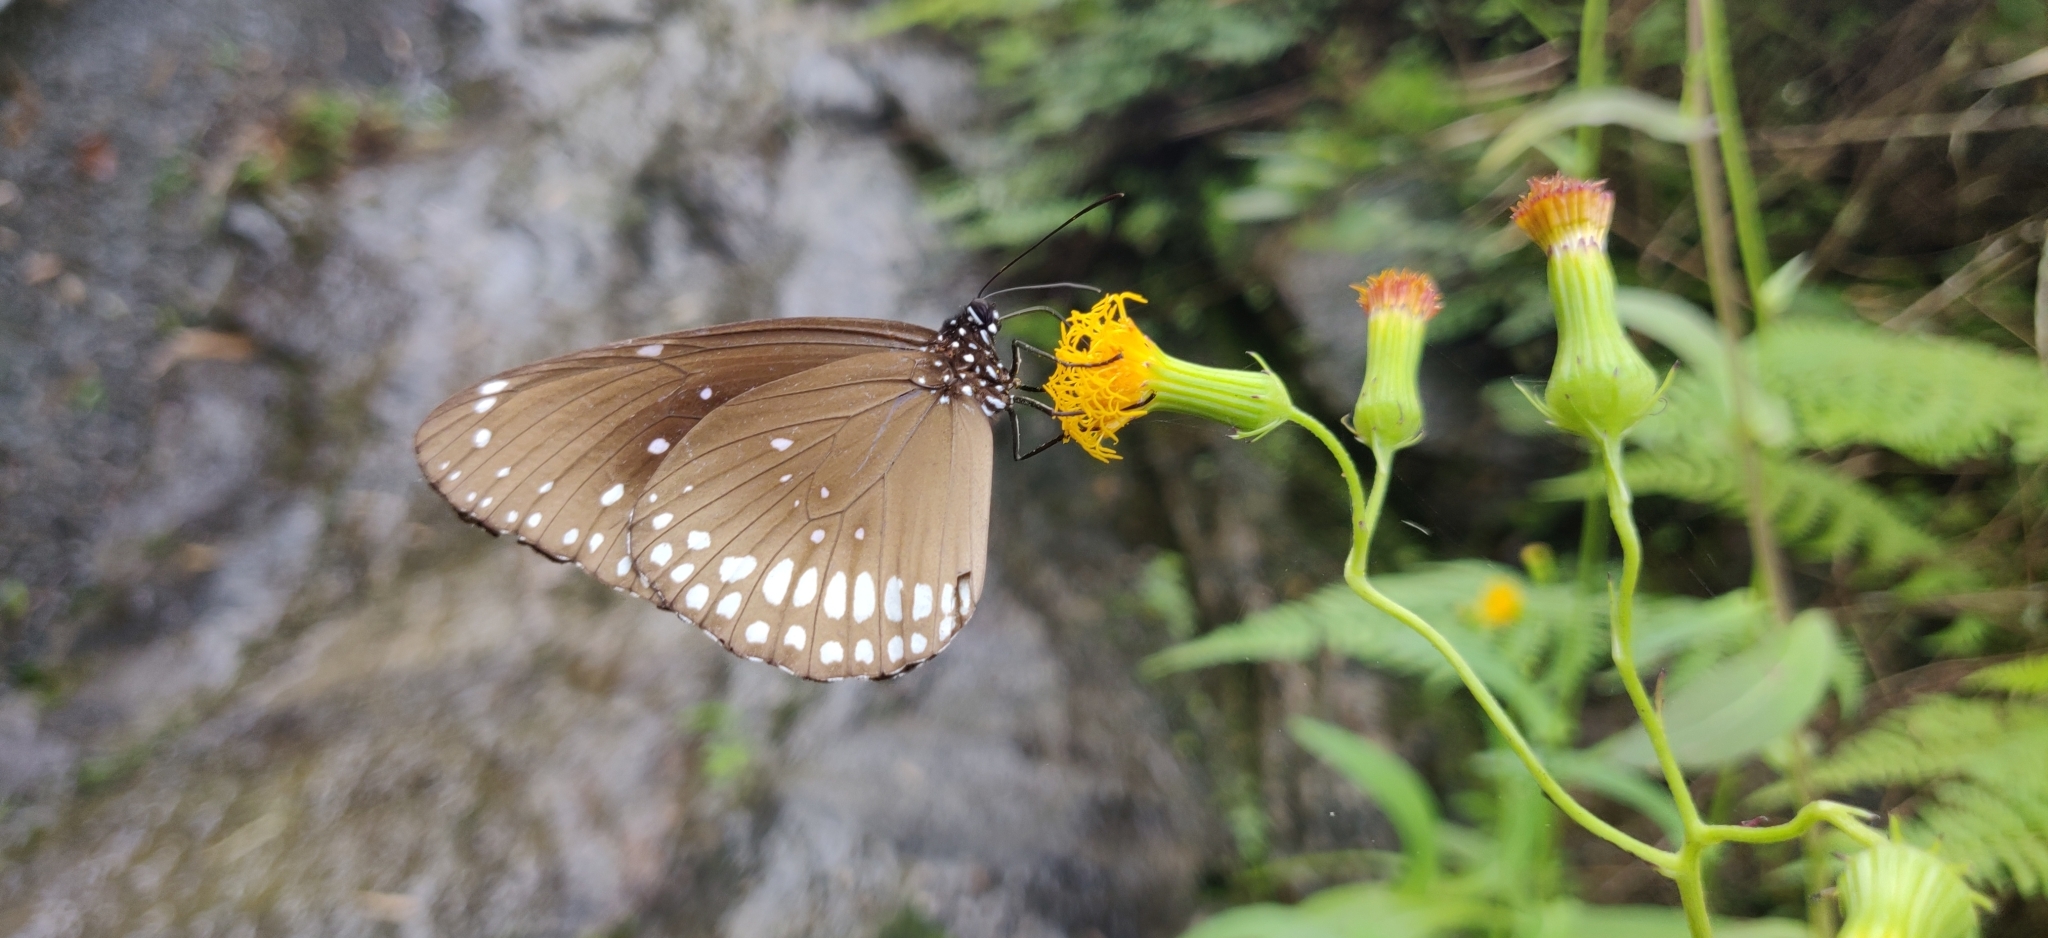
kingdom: Animalia
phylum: Arthropoda
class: Insecta
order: Lepidoptera
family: Nymphalidae
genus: Euploea
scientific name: Euploea core
